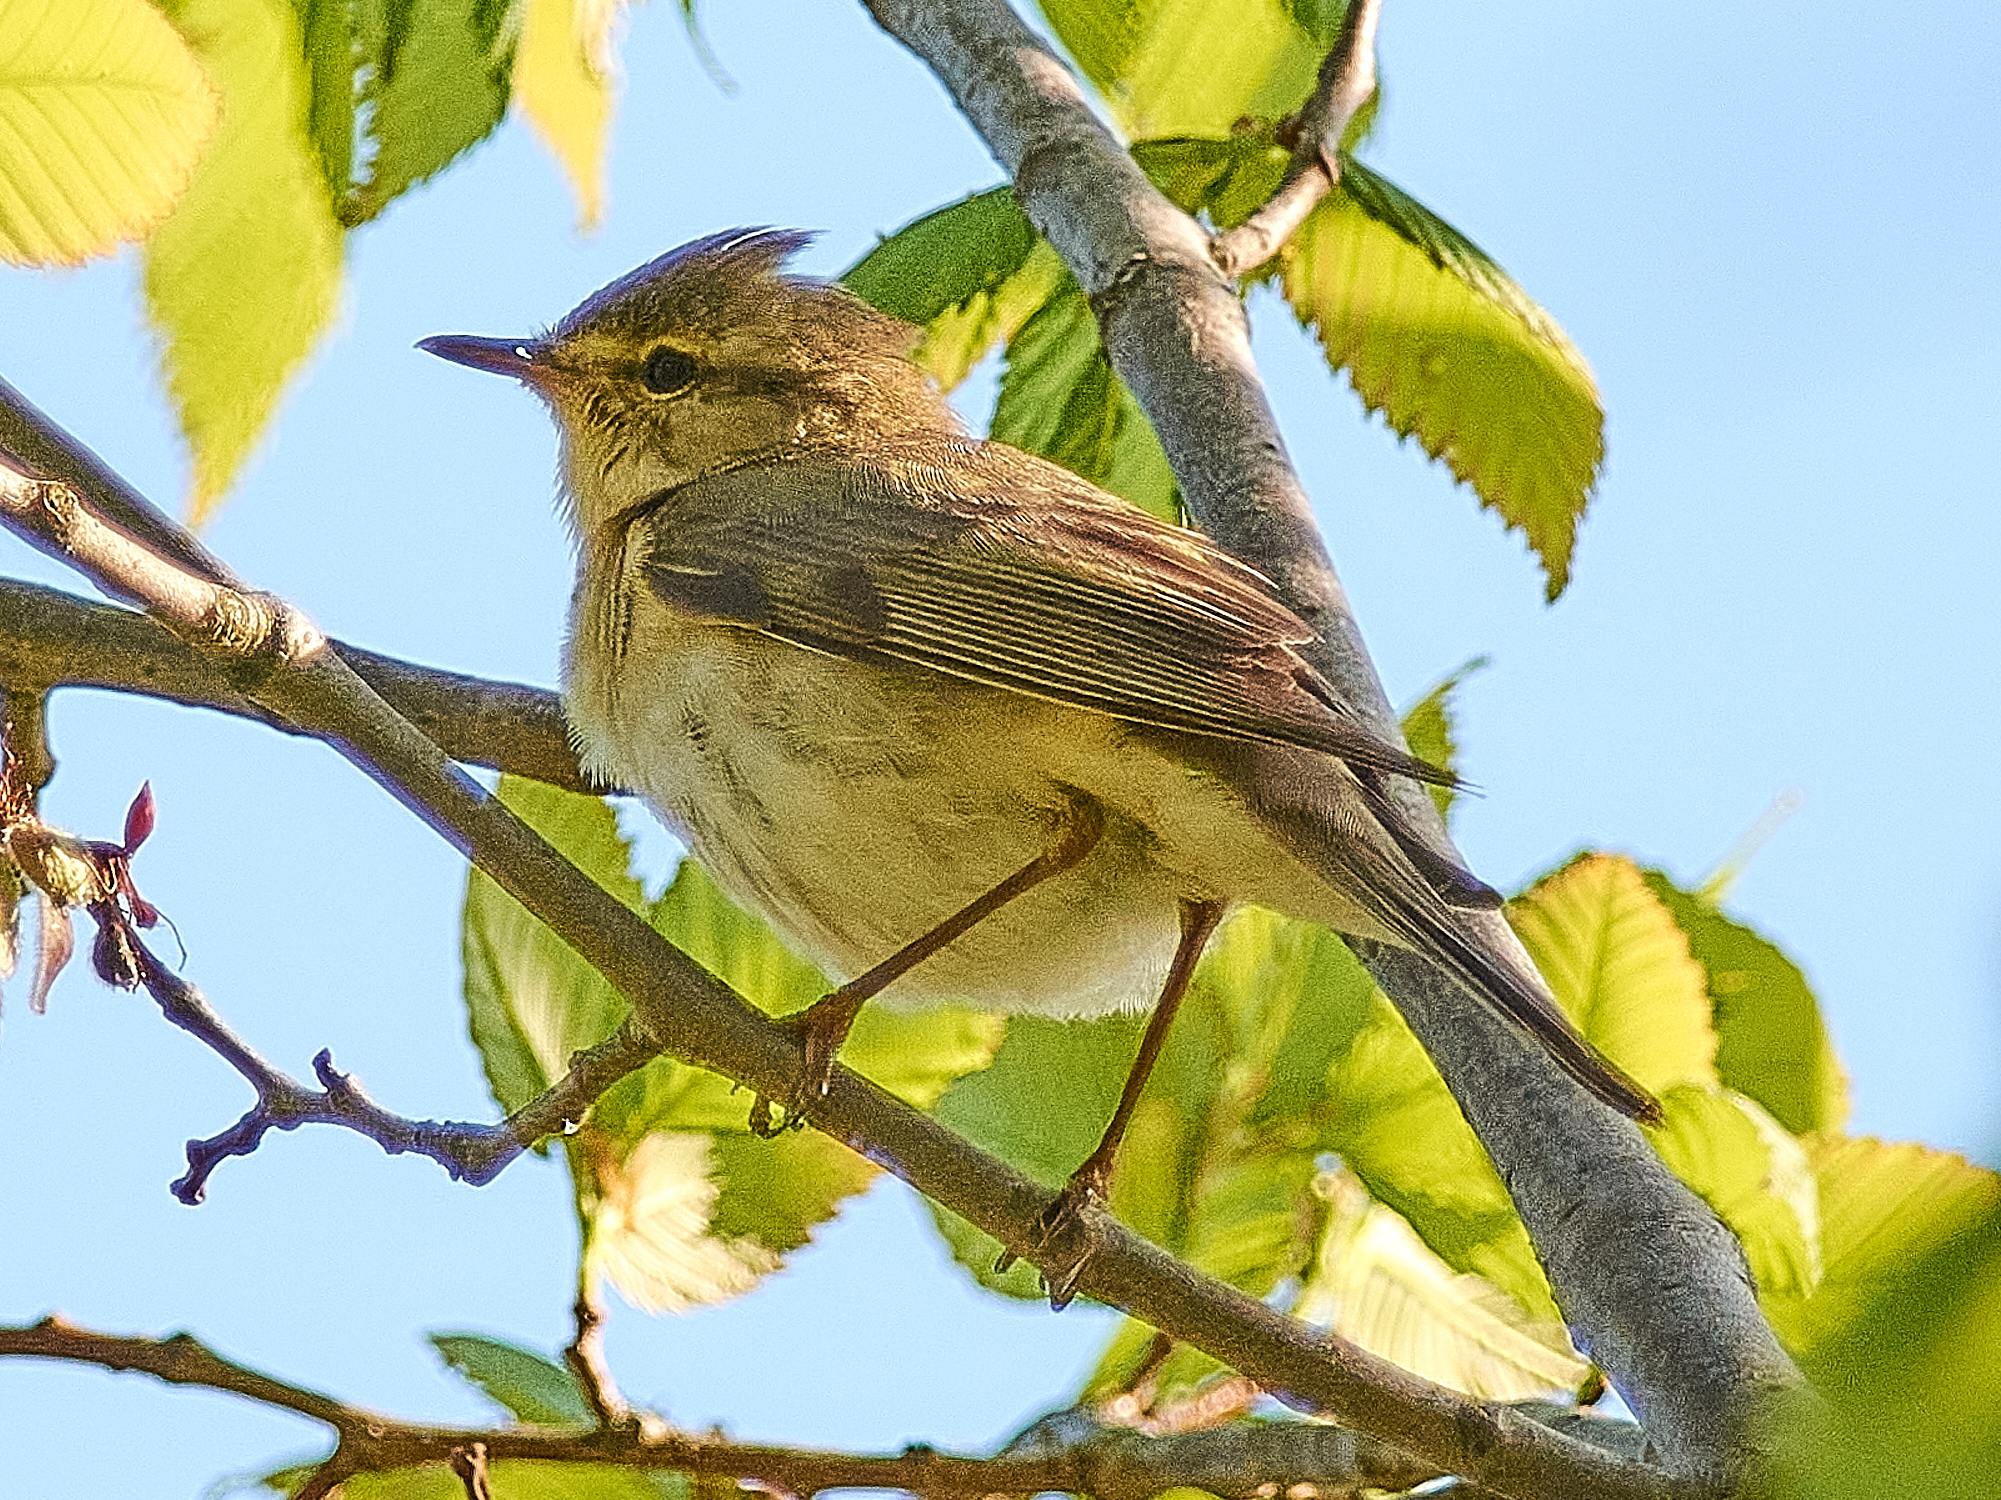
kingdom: Animalia
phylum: Chordata
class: Aves
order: Passeriformes
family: Phylloscopidae
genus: Phylloscopus
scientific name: Phylloscopus trochilus
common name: Willow warbler
